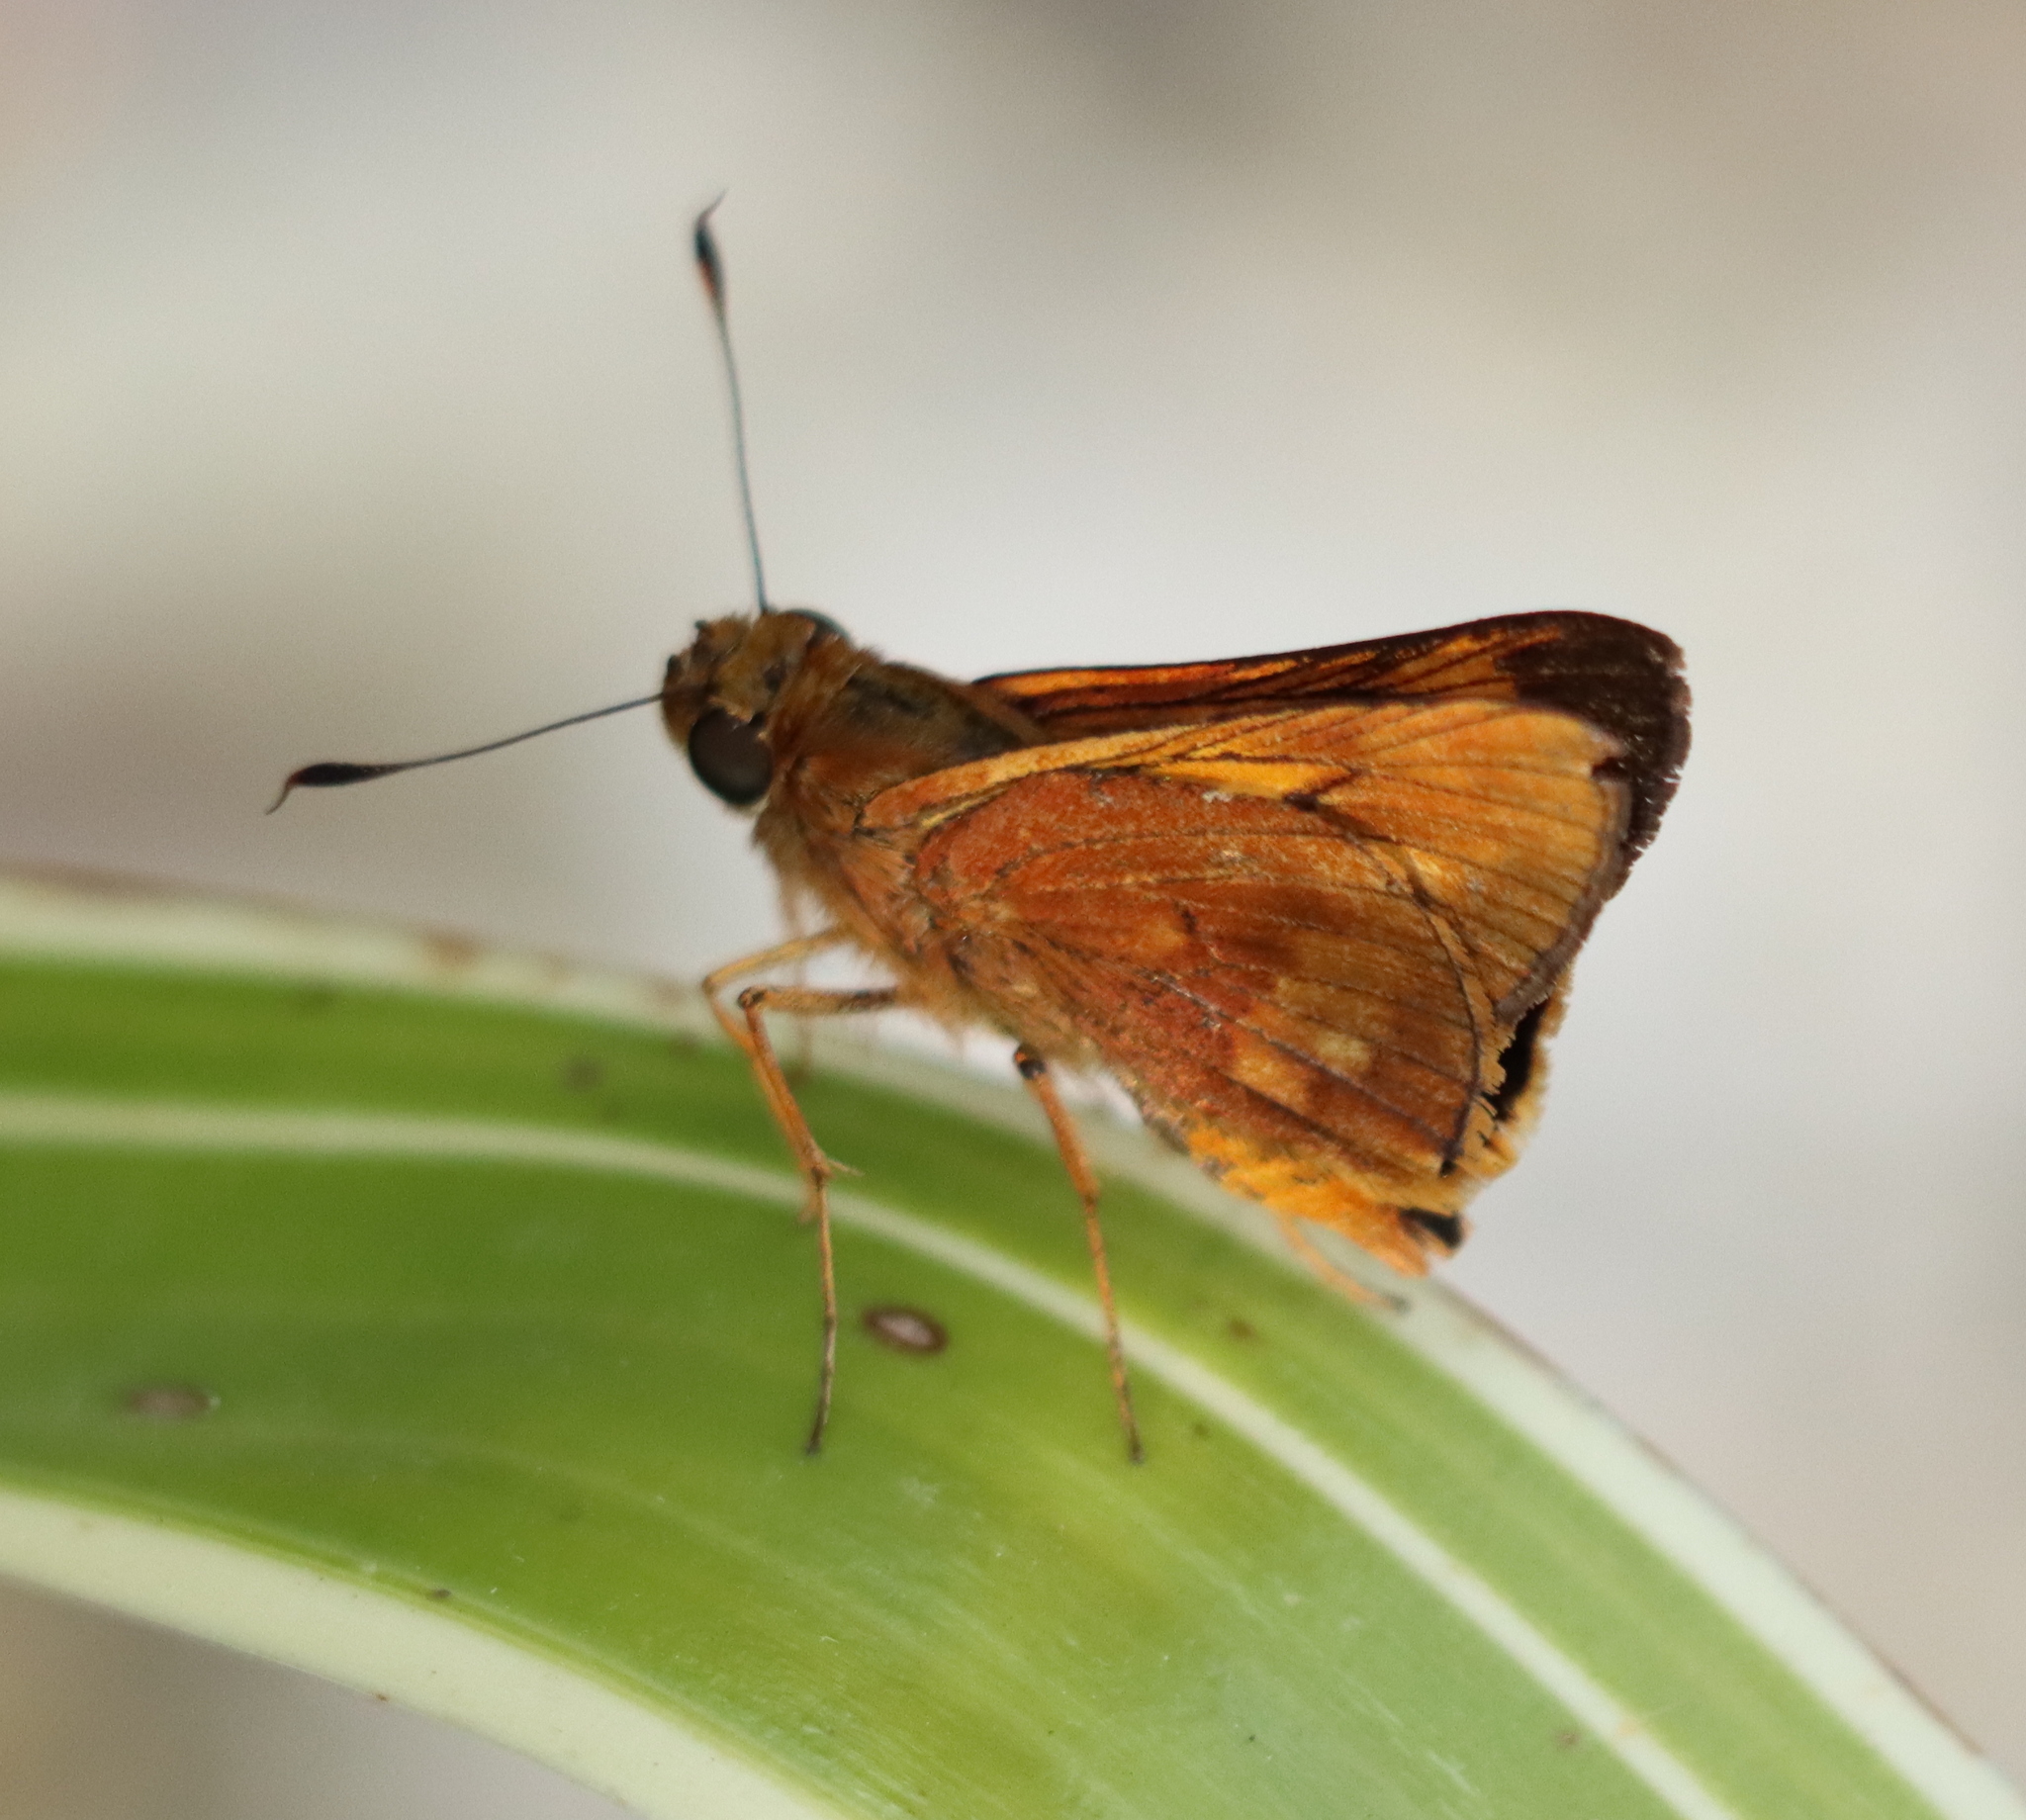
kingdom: Animalia
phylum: Arthropoda
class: Insecta
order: Lepidoptera
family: Hesperiidae
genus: Cephrenes
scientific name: Cephrenes augiades
